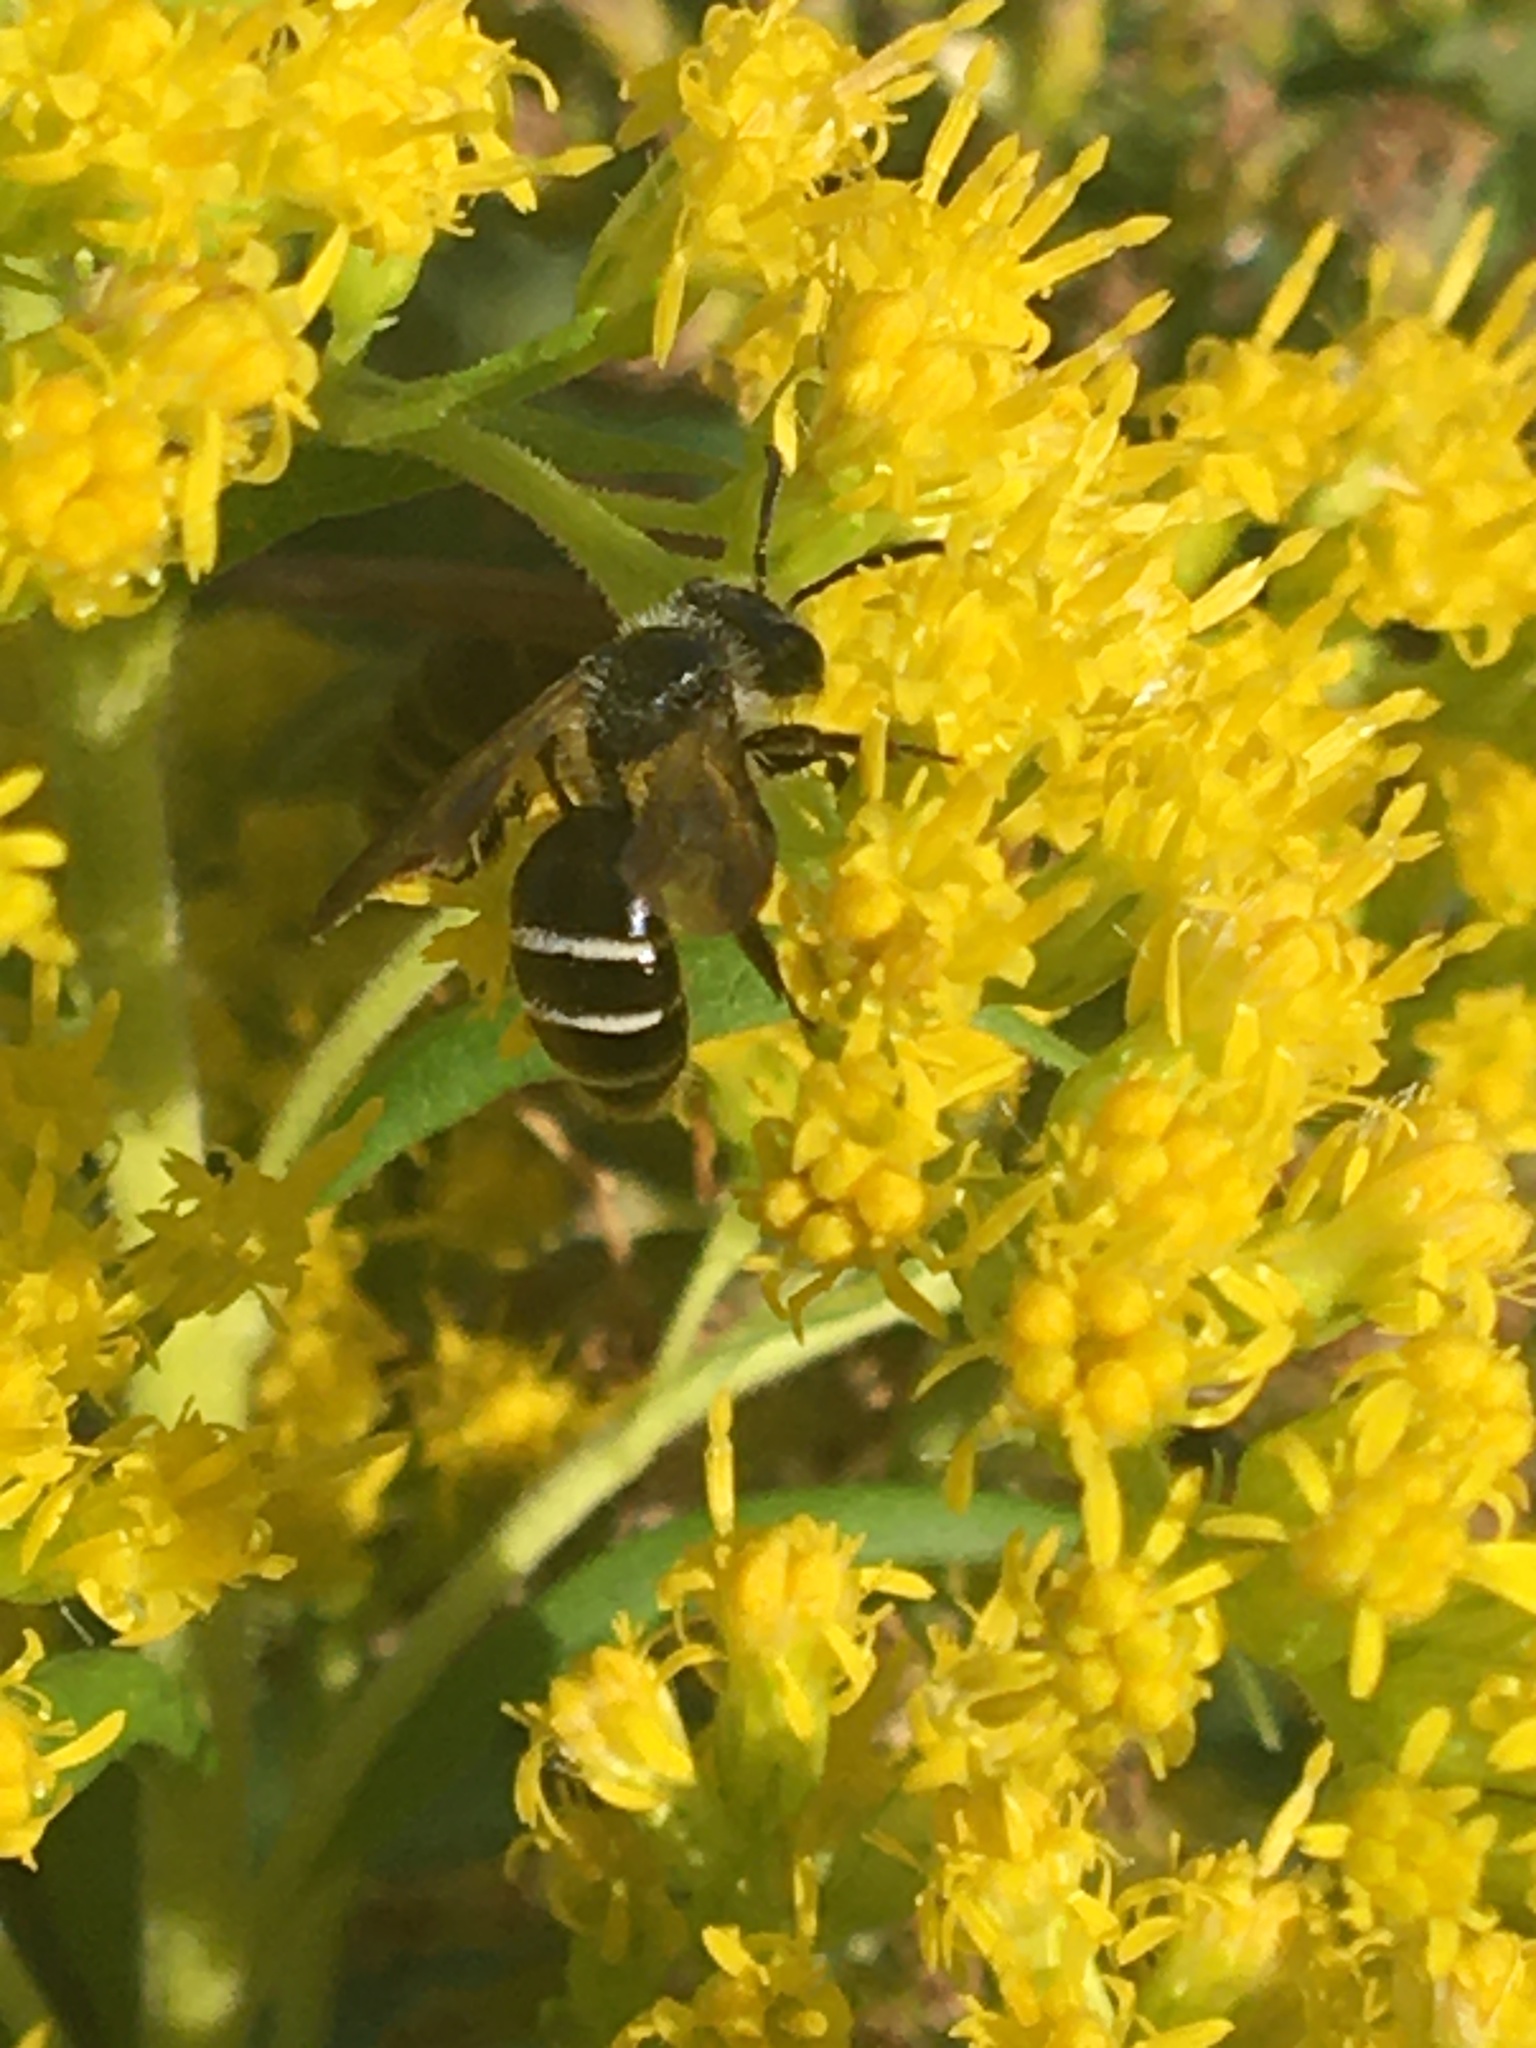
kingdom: Animalia
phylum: Arthropoda
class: Insecta
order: Hymenoptera
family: Andrenidae
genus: Andrena
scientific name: Andrena nubecula
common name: Cloudy-winged mining bee
